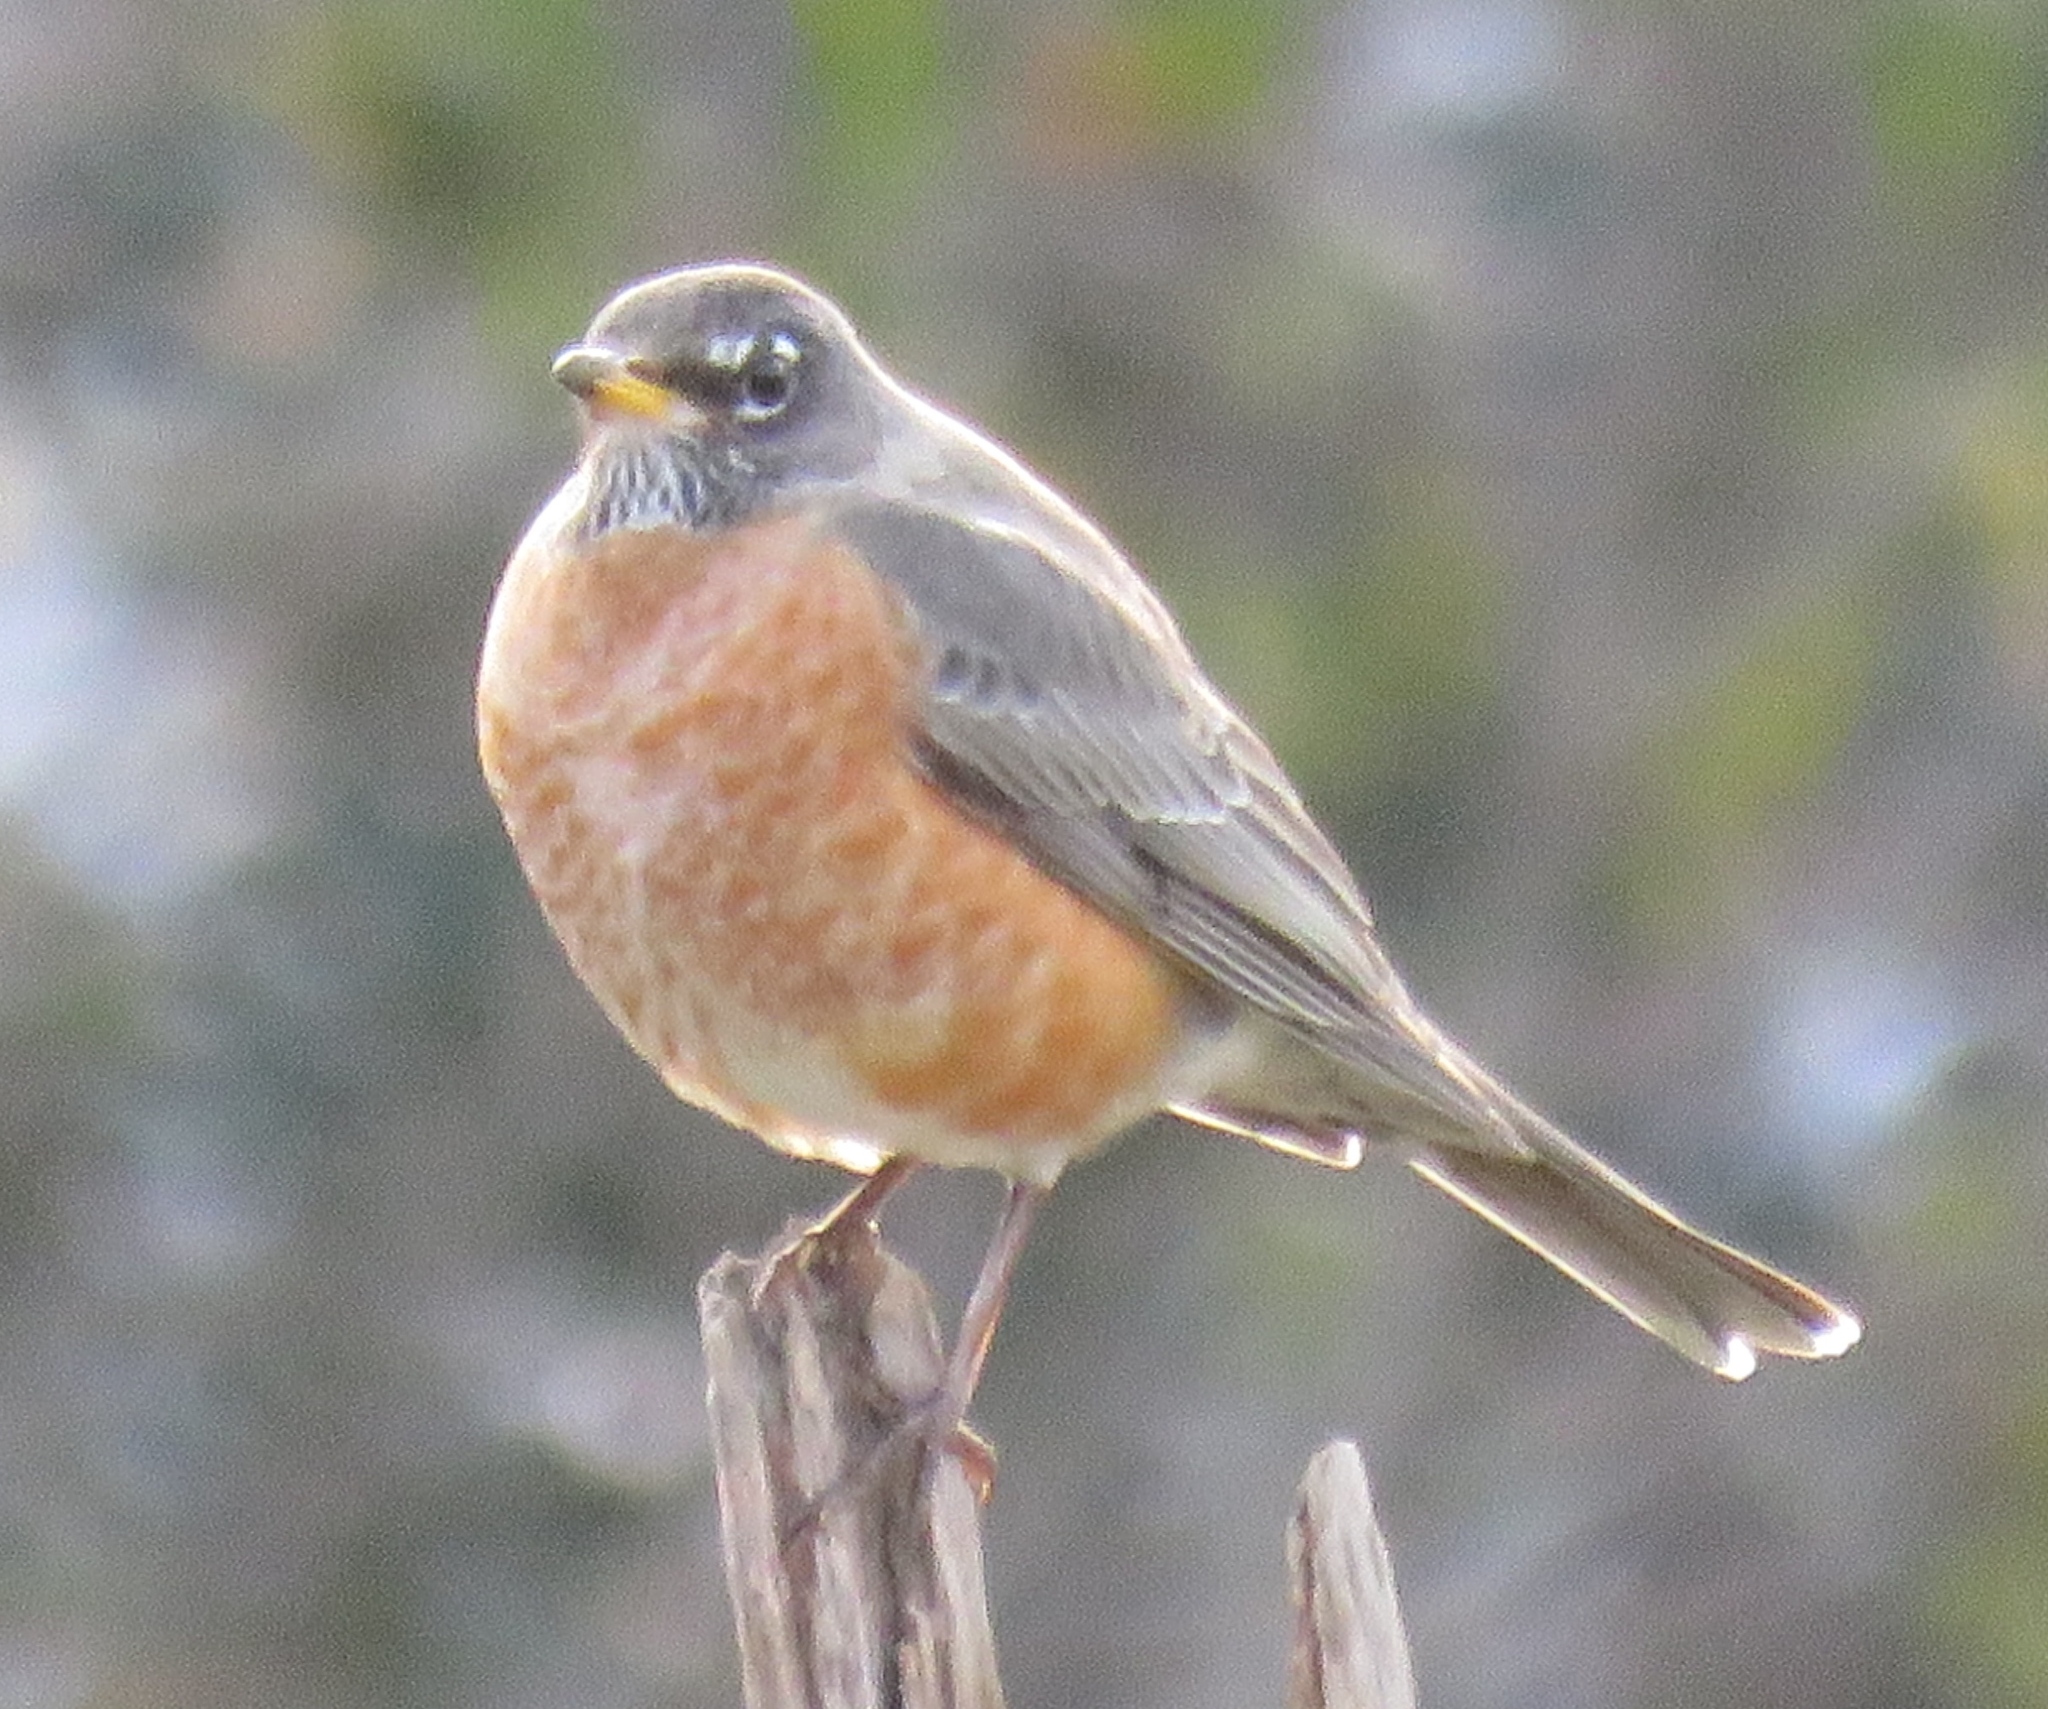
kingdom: Animalia
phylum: Chordata
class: Aves
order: Passeriformes
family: Turdidae
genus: Turdus
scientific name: Turdus migratorius
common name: American robin
